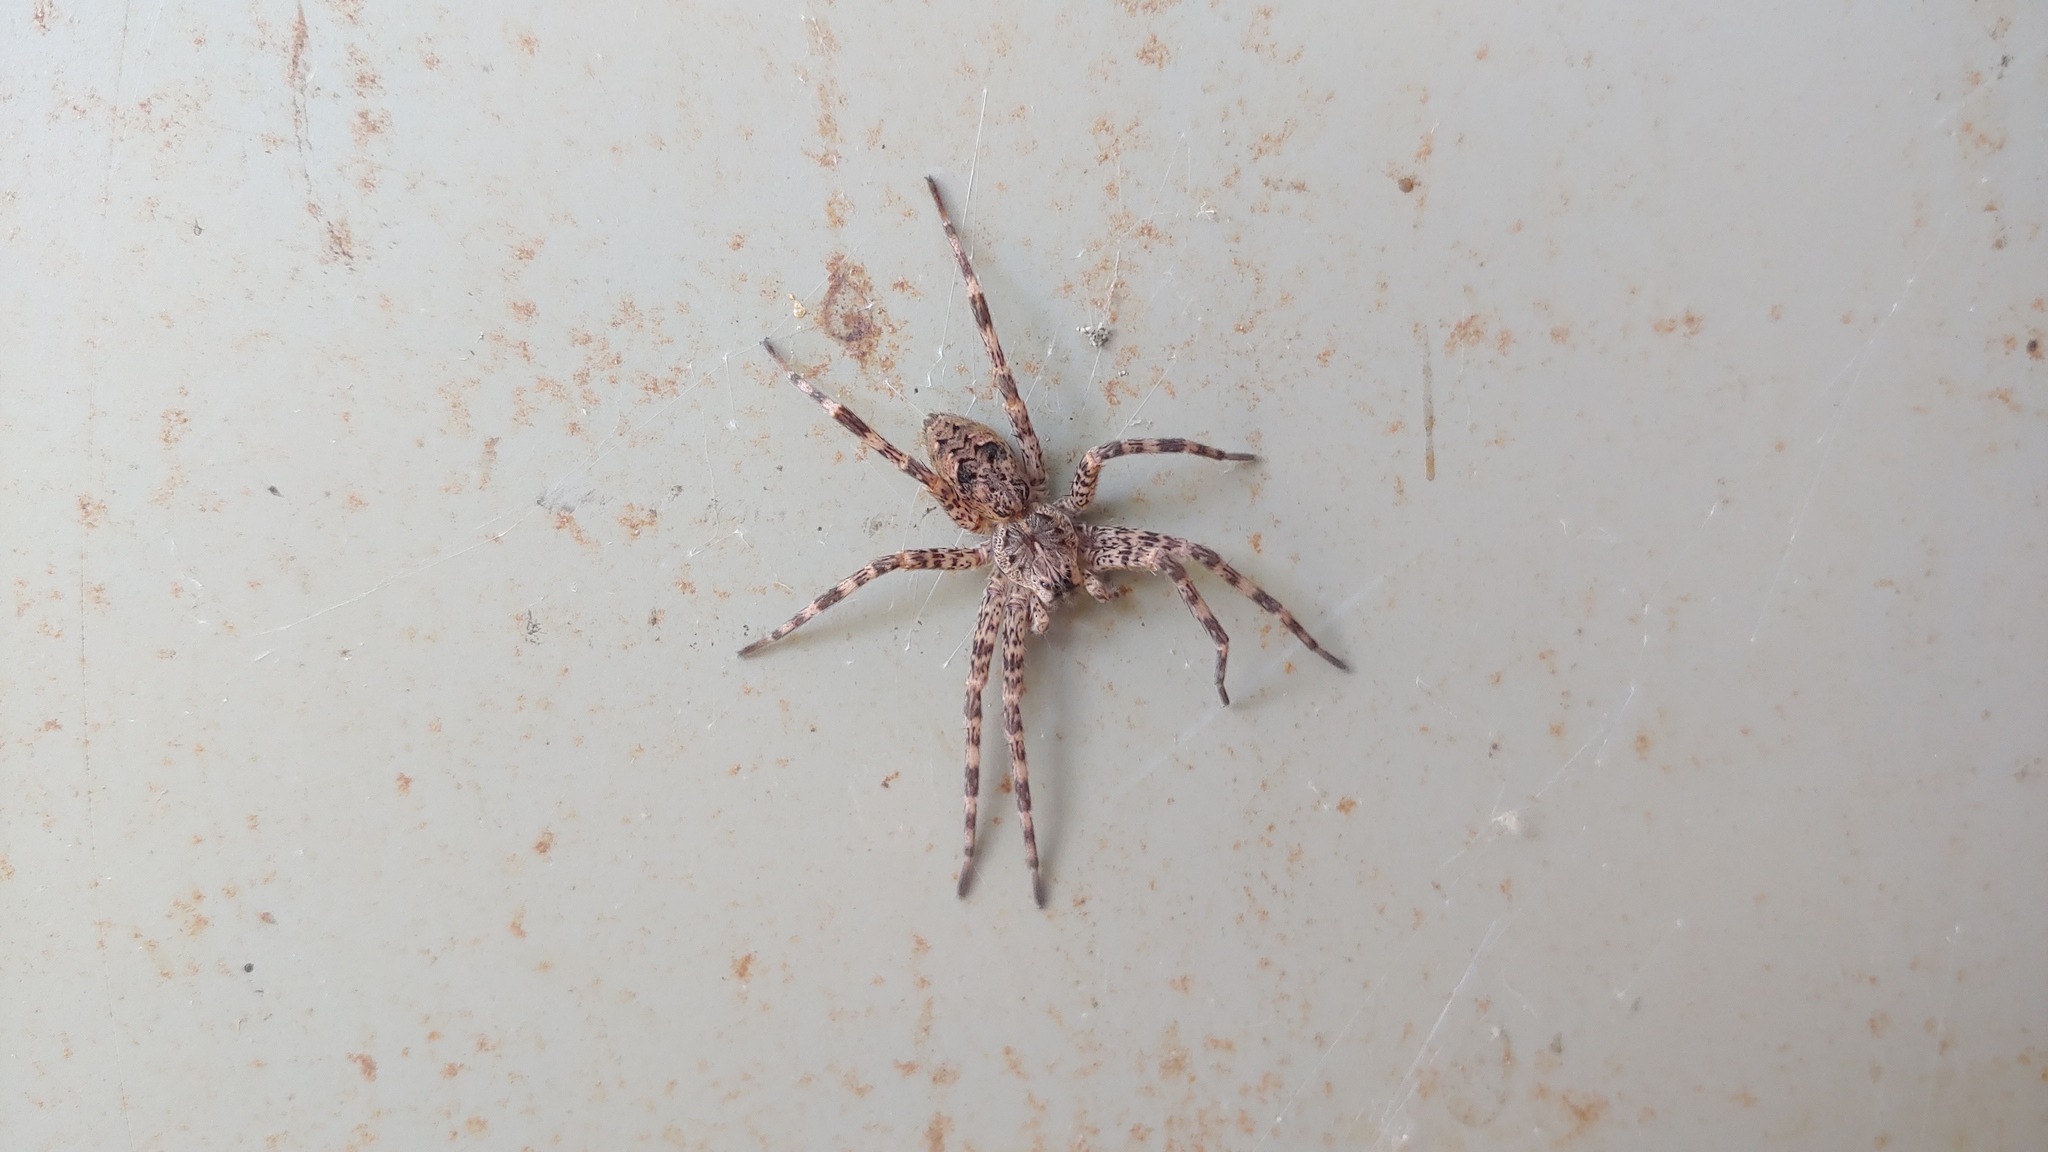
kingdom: Animalia
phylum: Arthropoda
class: Arachnida
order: Araneae
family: Pisauridae
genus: Dolomedes
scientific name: Dolomedes tenebrosus
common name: Dark fishing spider
